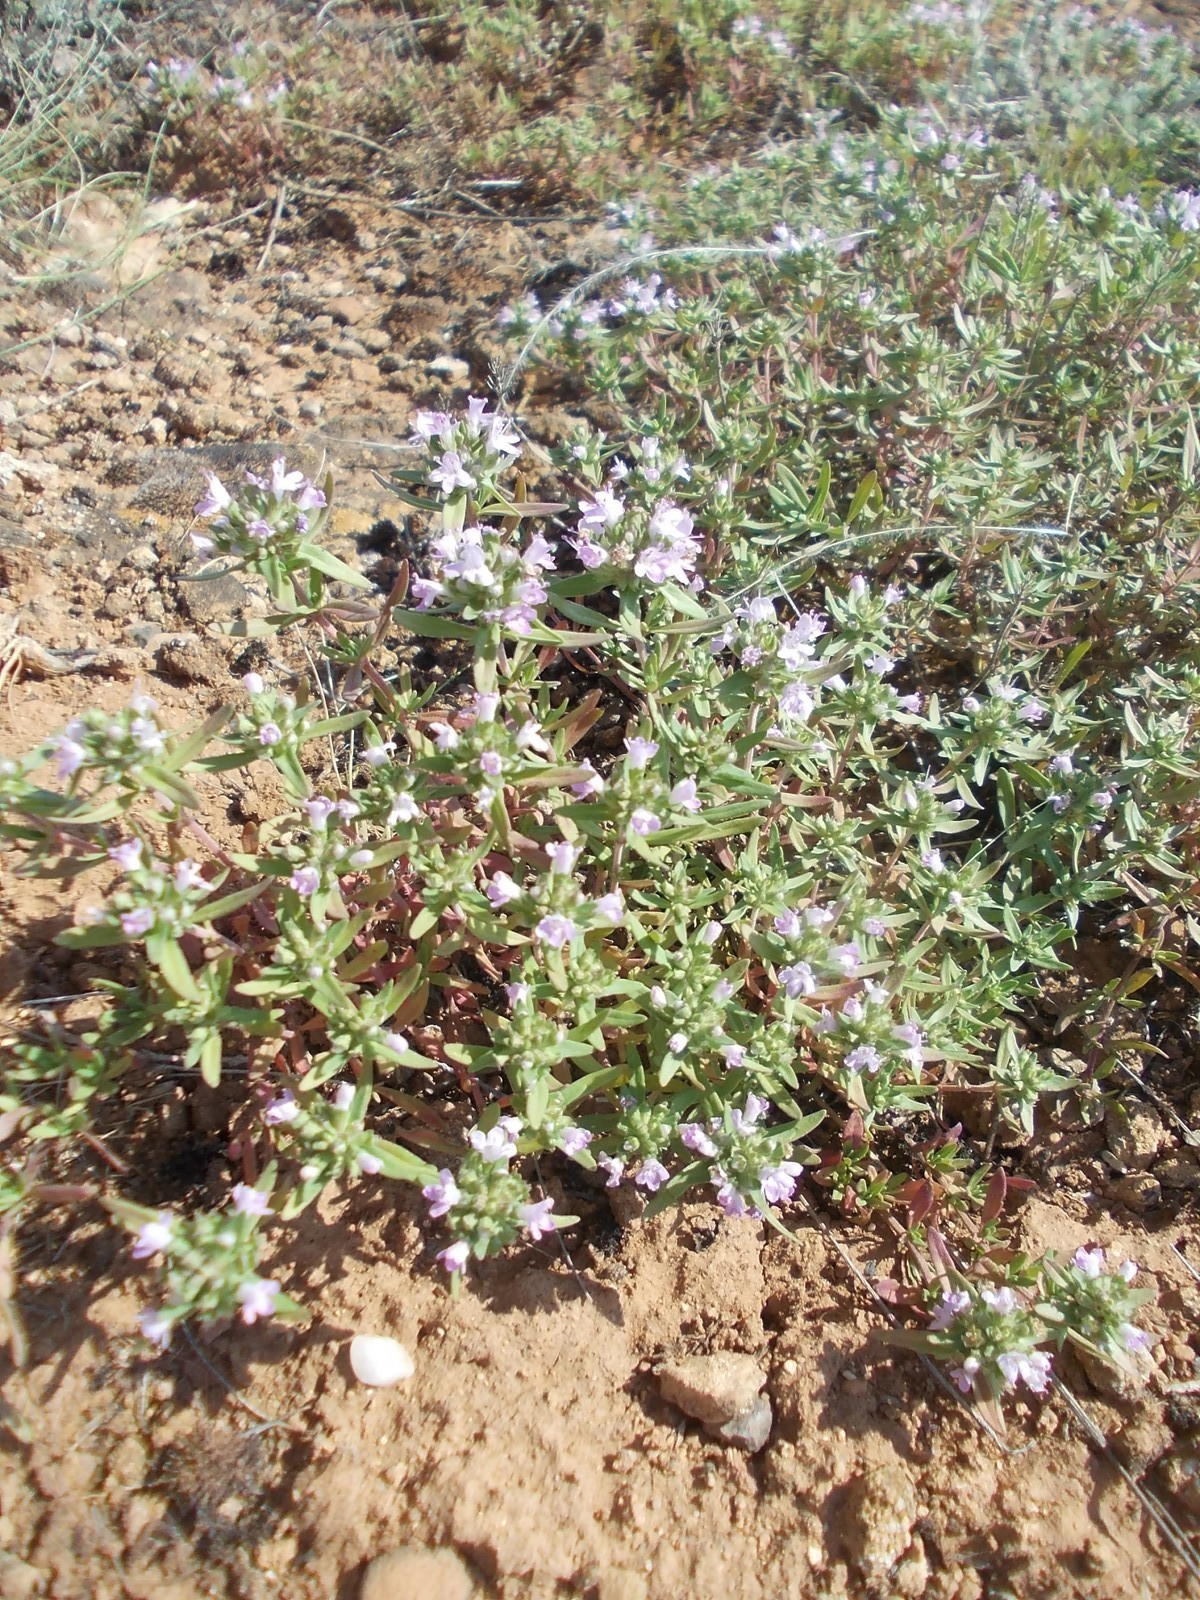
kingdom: Plantae
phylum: Tracheophyta
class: Magnoliopsida
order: Lamiales
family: Lamiaceae
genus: Thymus
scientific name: Thymus kirgisorum
